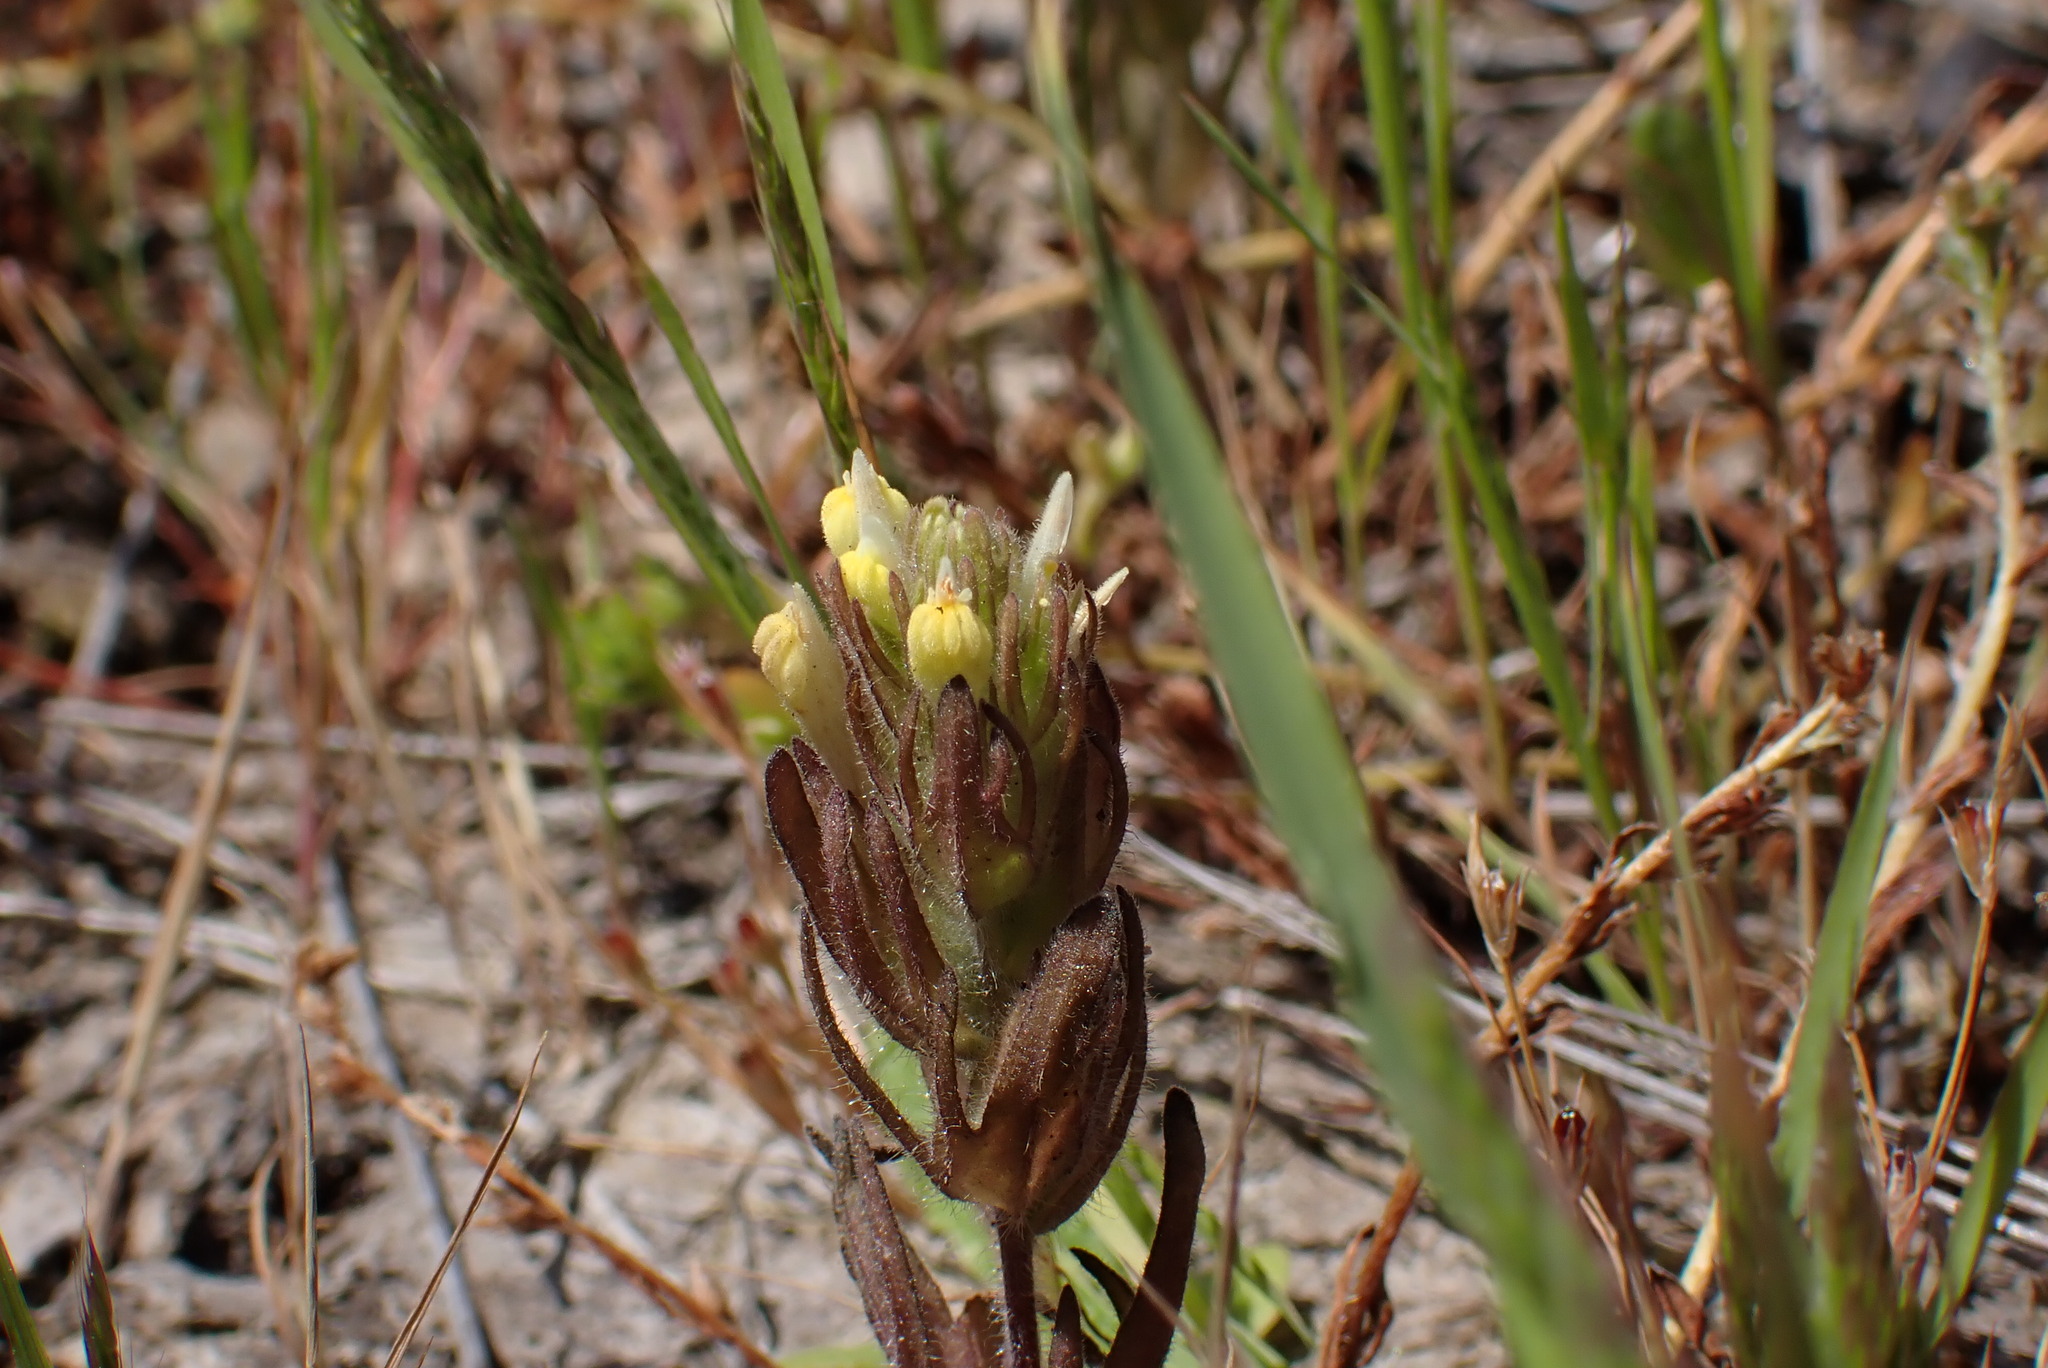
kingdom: Plantae
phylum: Tracheophyta
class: Magnoliopsida
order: Lamiales
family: Orobanchaceae
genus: Castilleja
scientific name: Castilleja victoriae
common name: Victoria paintbrush
